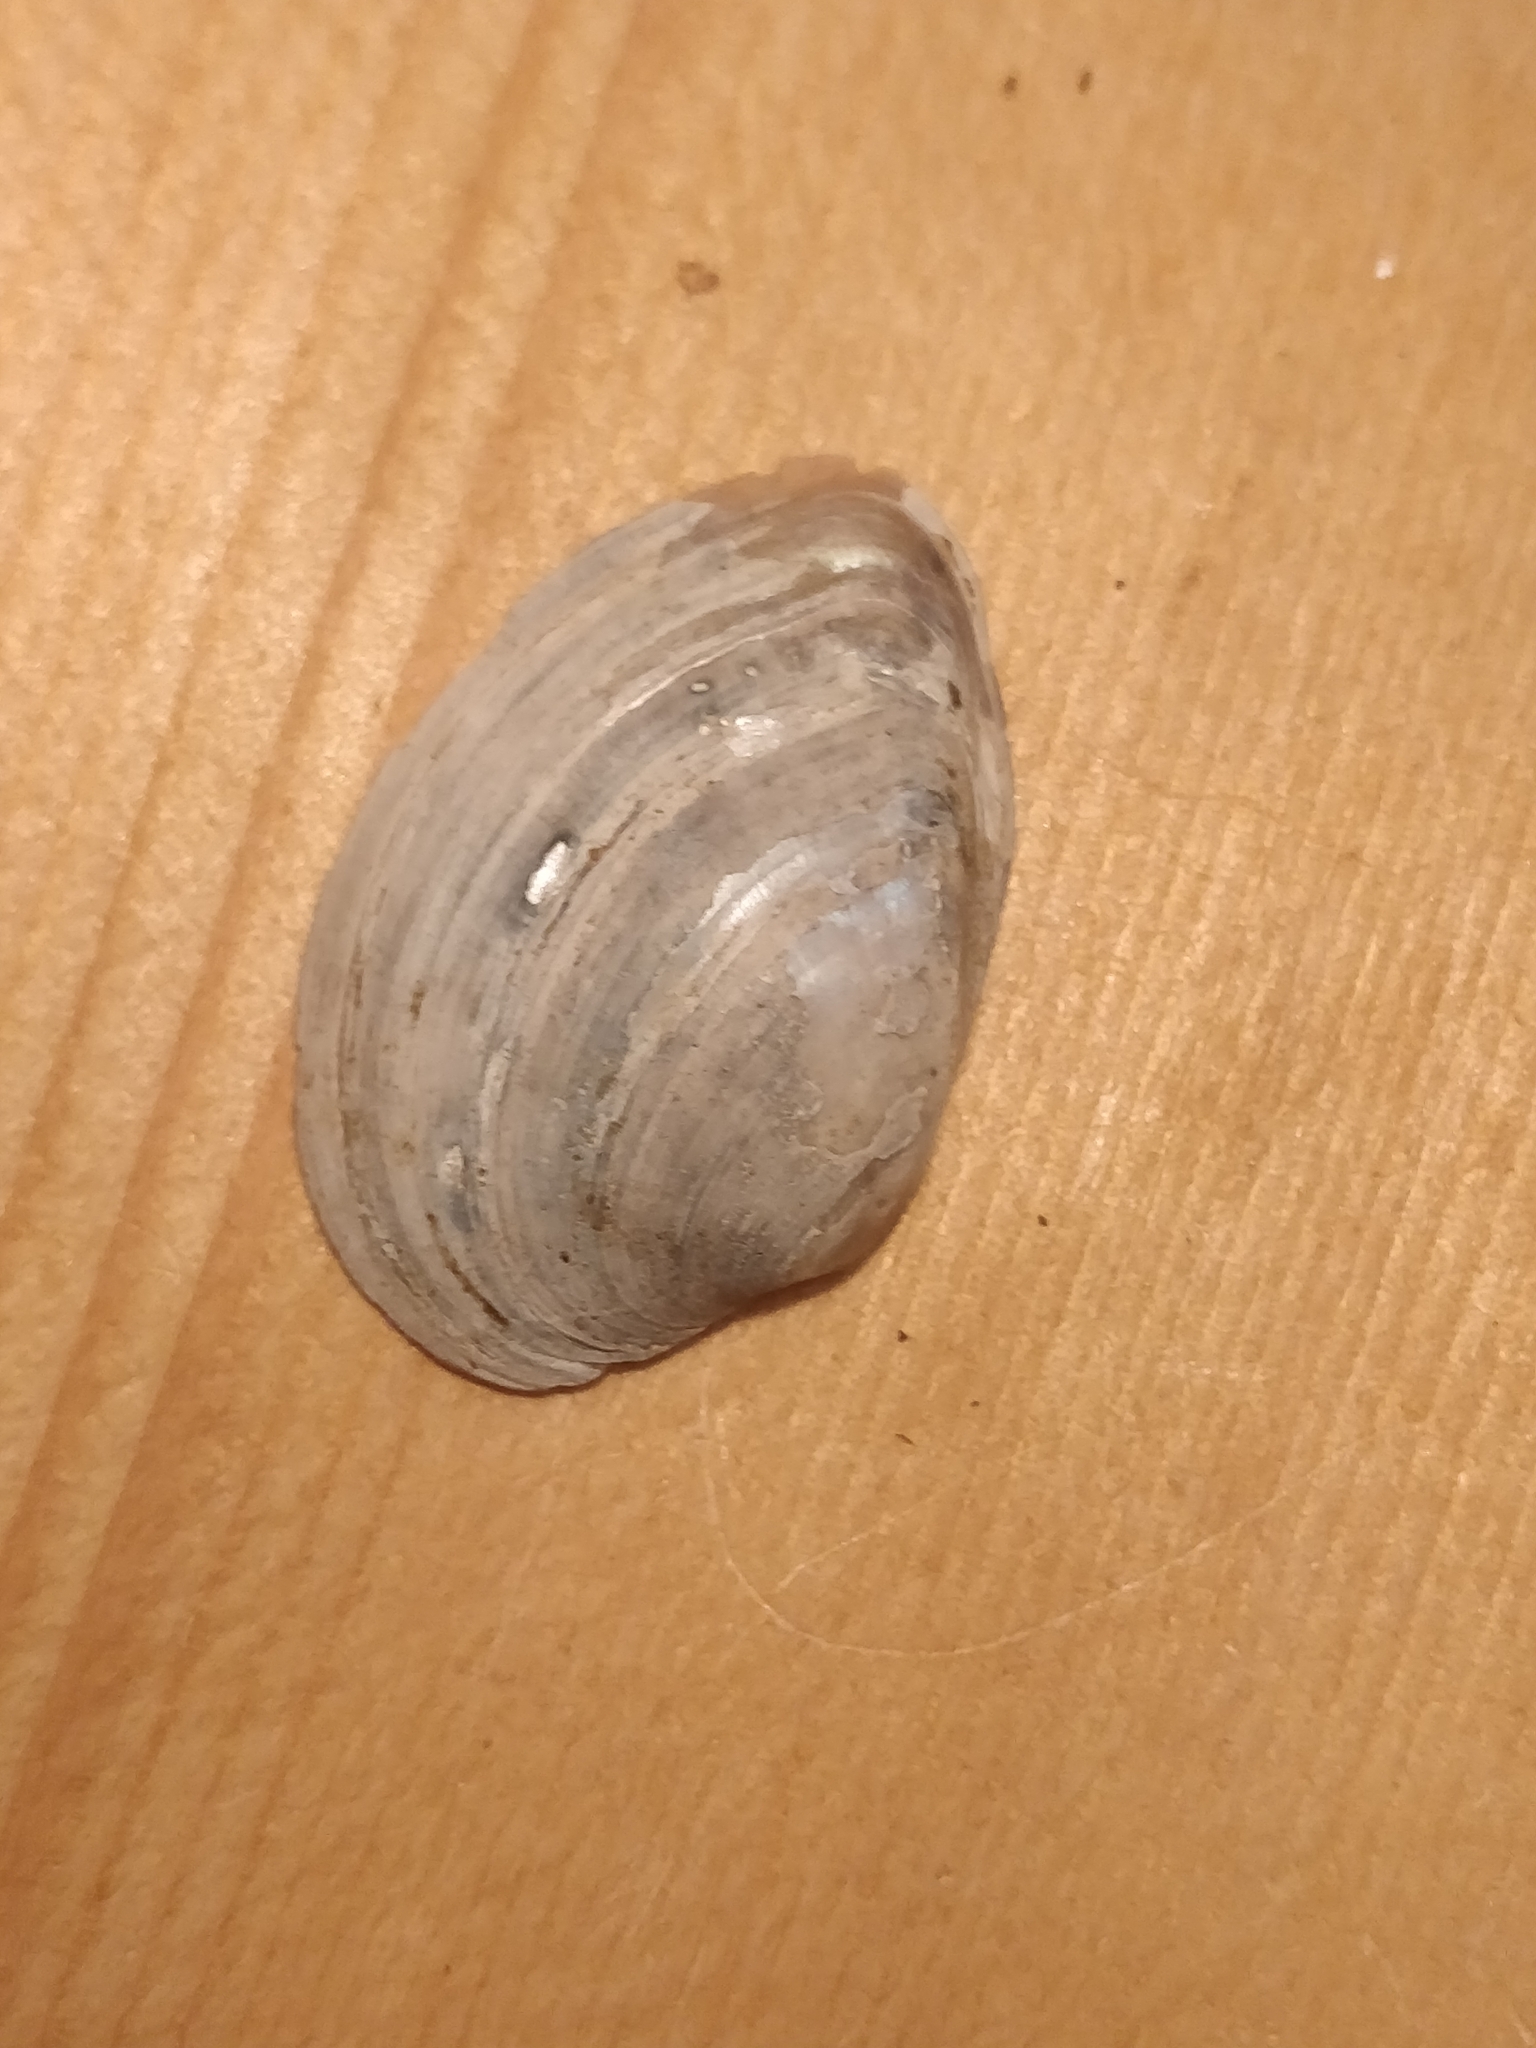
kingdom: Animalia
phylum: Mollusca
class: Bivalvia
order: Unionida
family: Unionidae
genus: Truncilla
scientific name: Truncilla donaciformis
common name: Fawnsfoot
